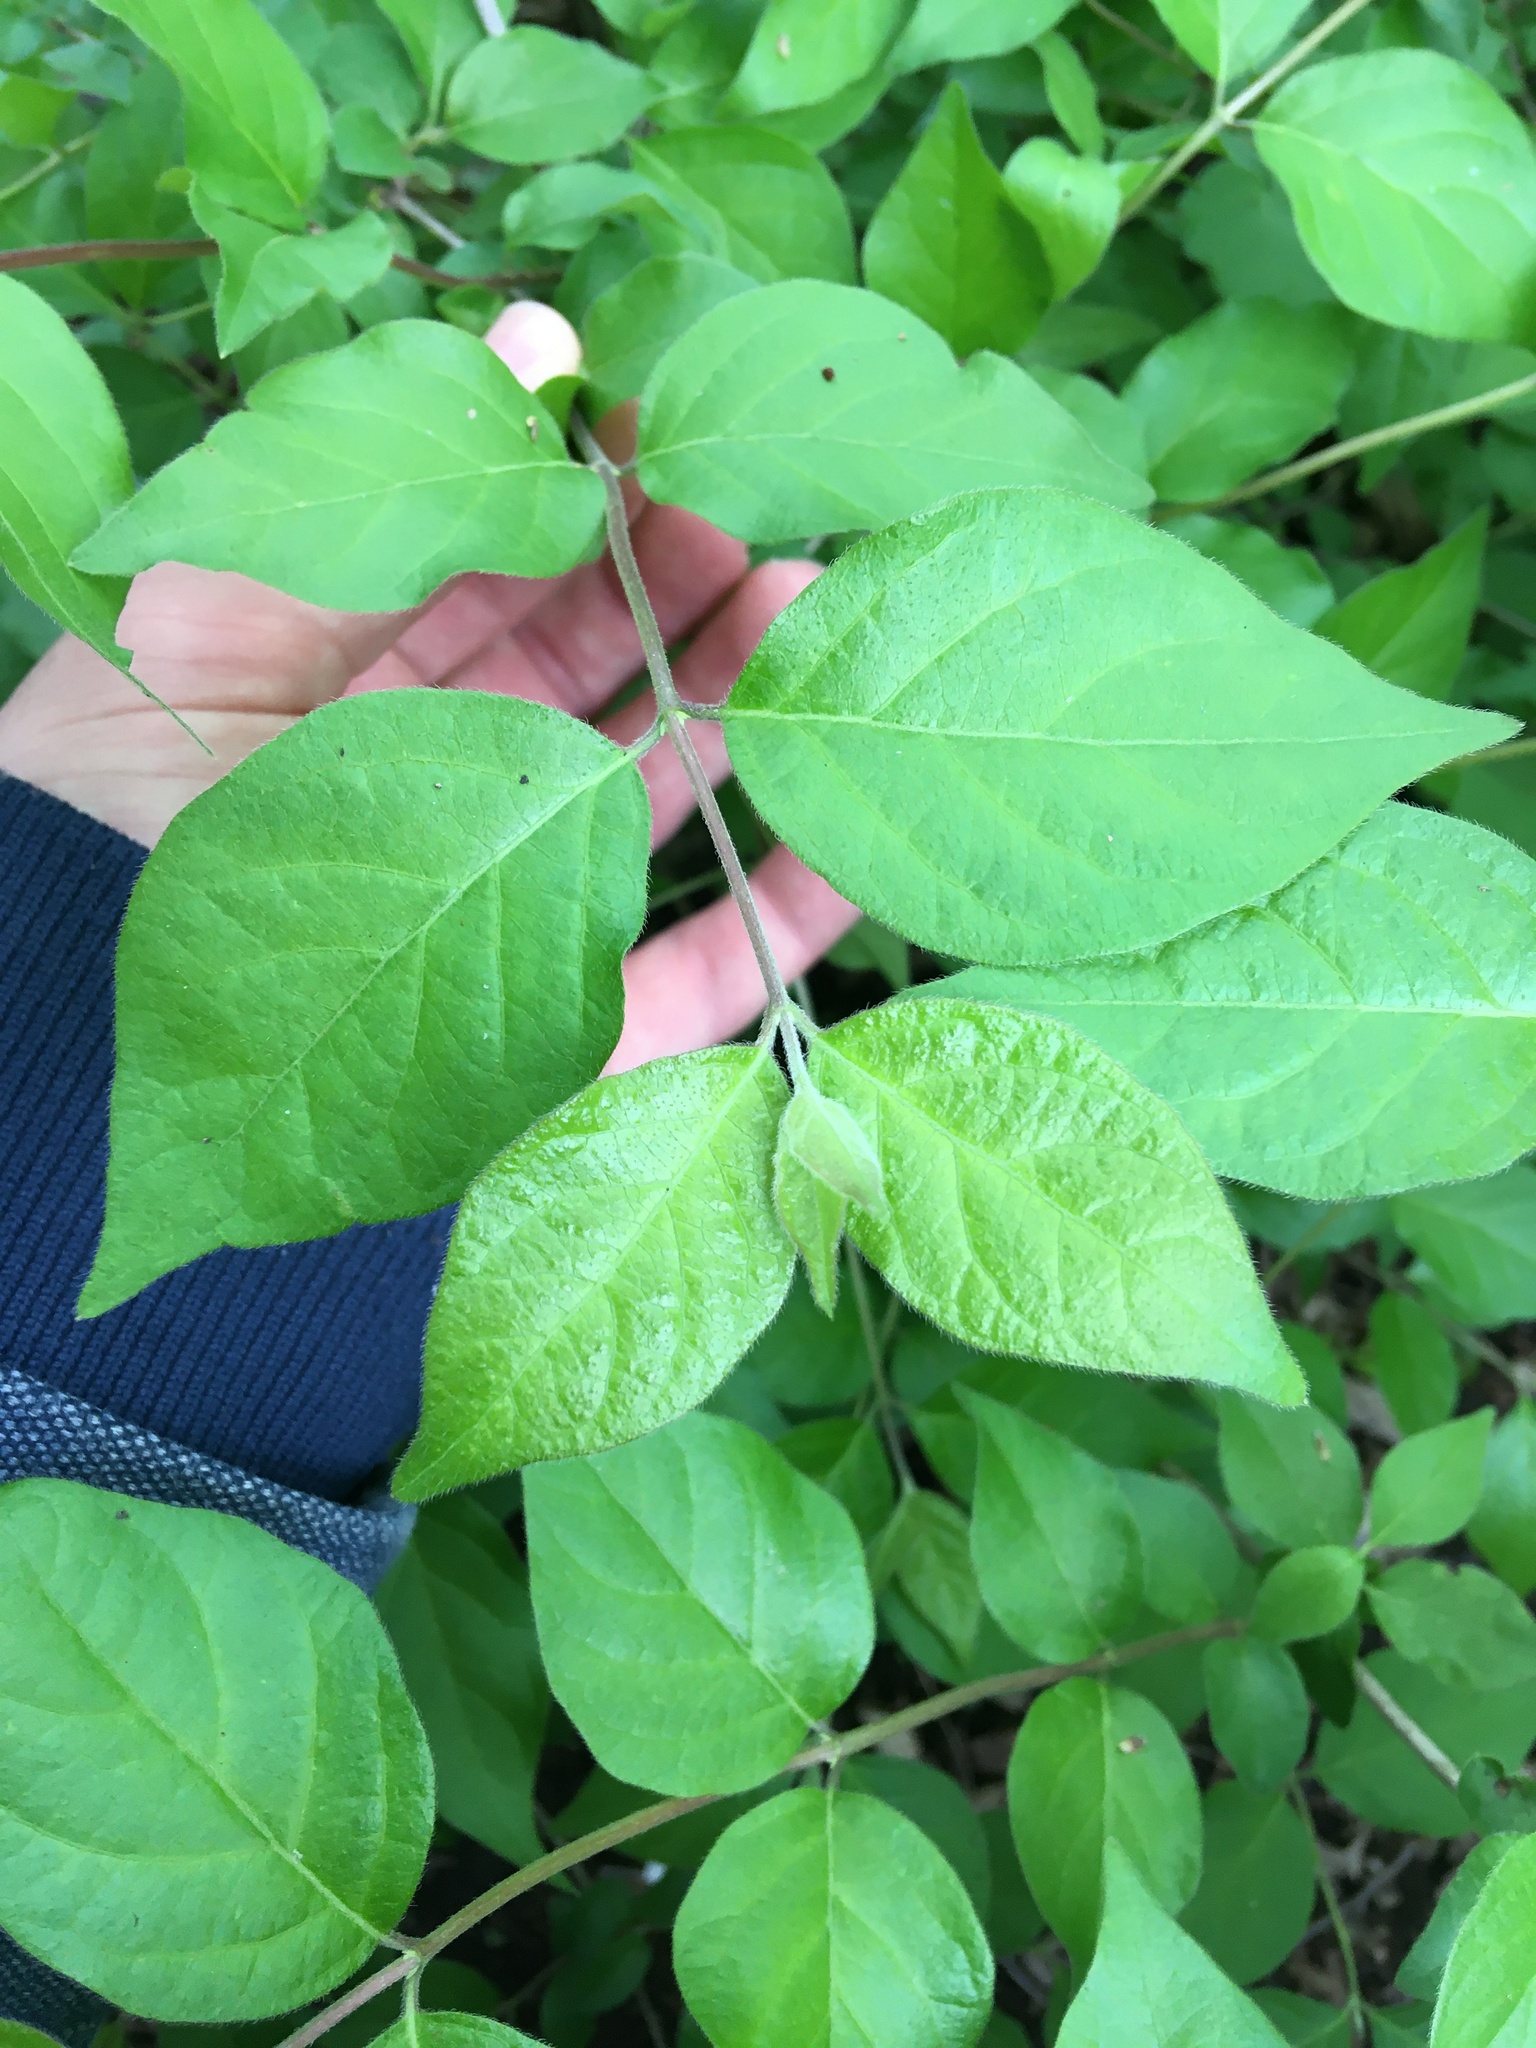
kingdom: Plantae
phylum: Tracheophyta
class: Magnoliopsida
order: Dipsacales
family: Caprifoliaceae
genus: Lonicera
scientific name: Lonicera maackii
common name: Amur honeysuckle
